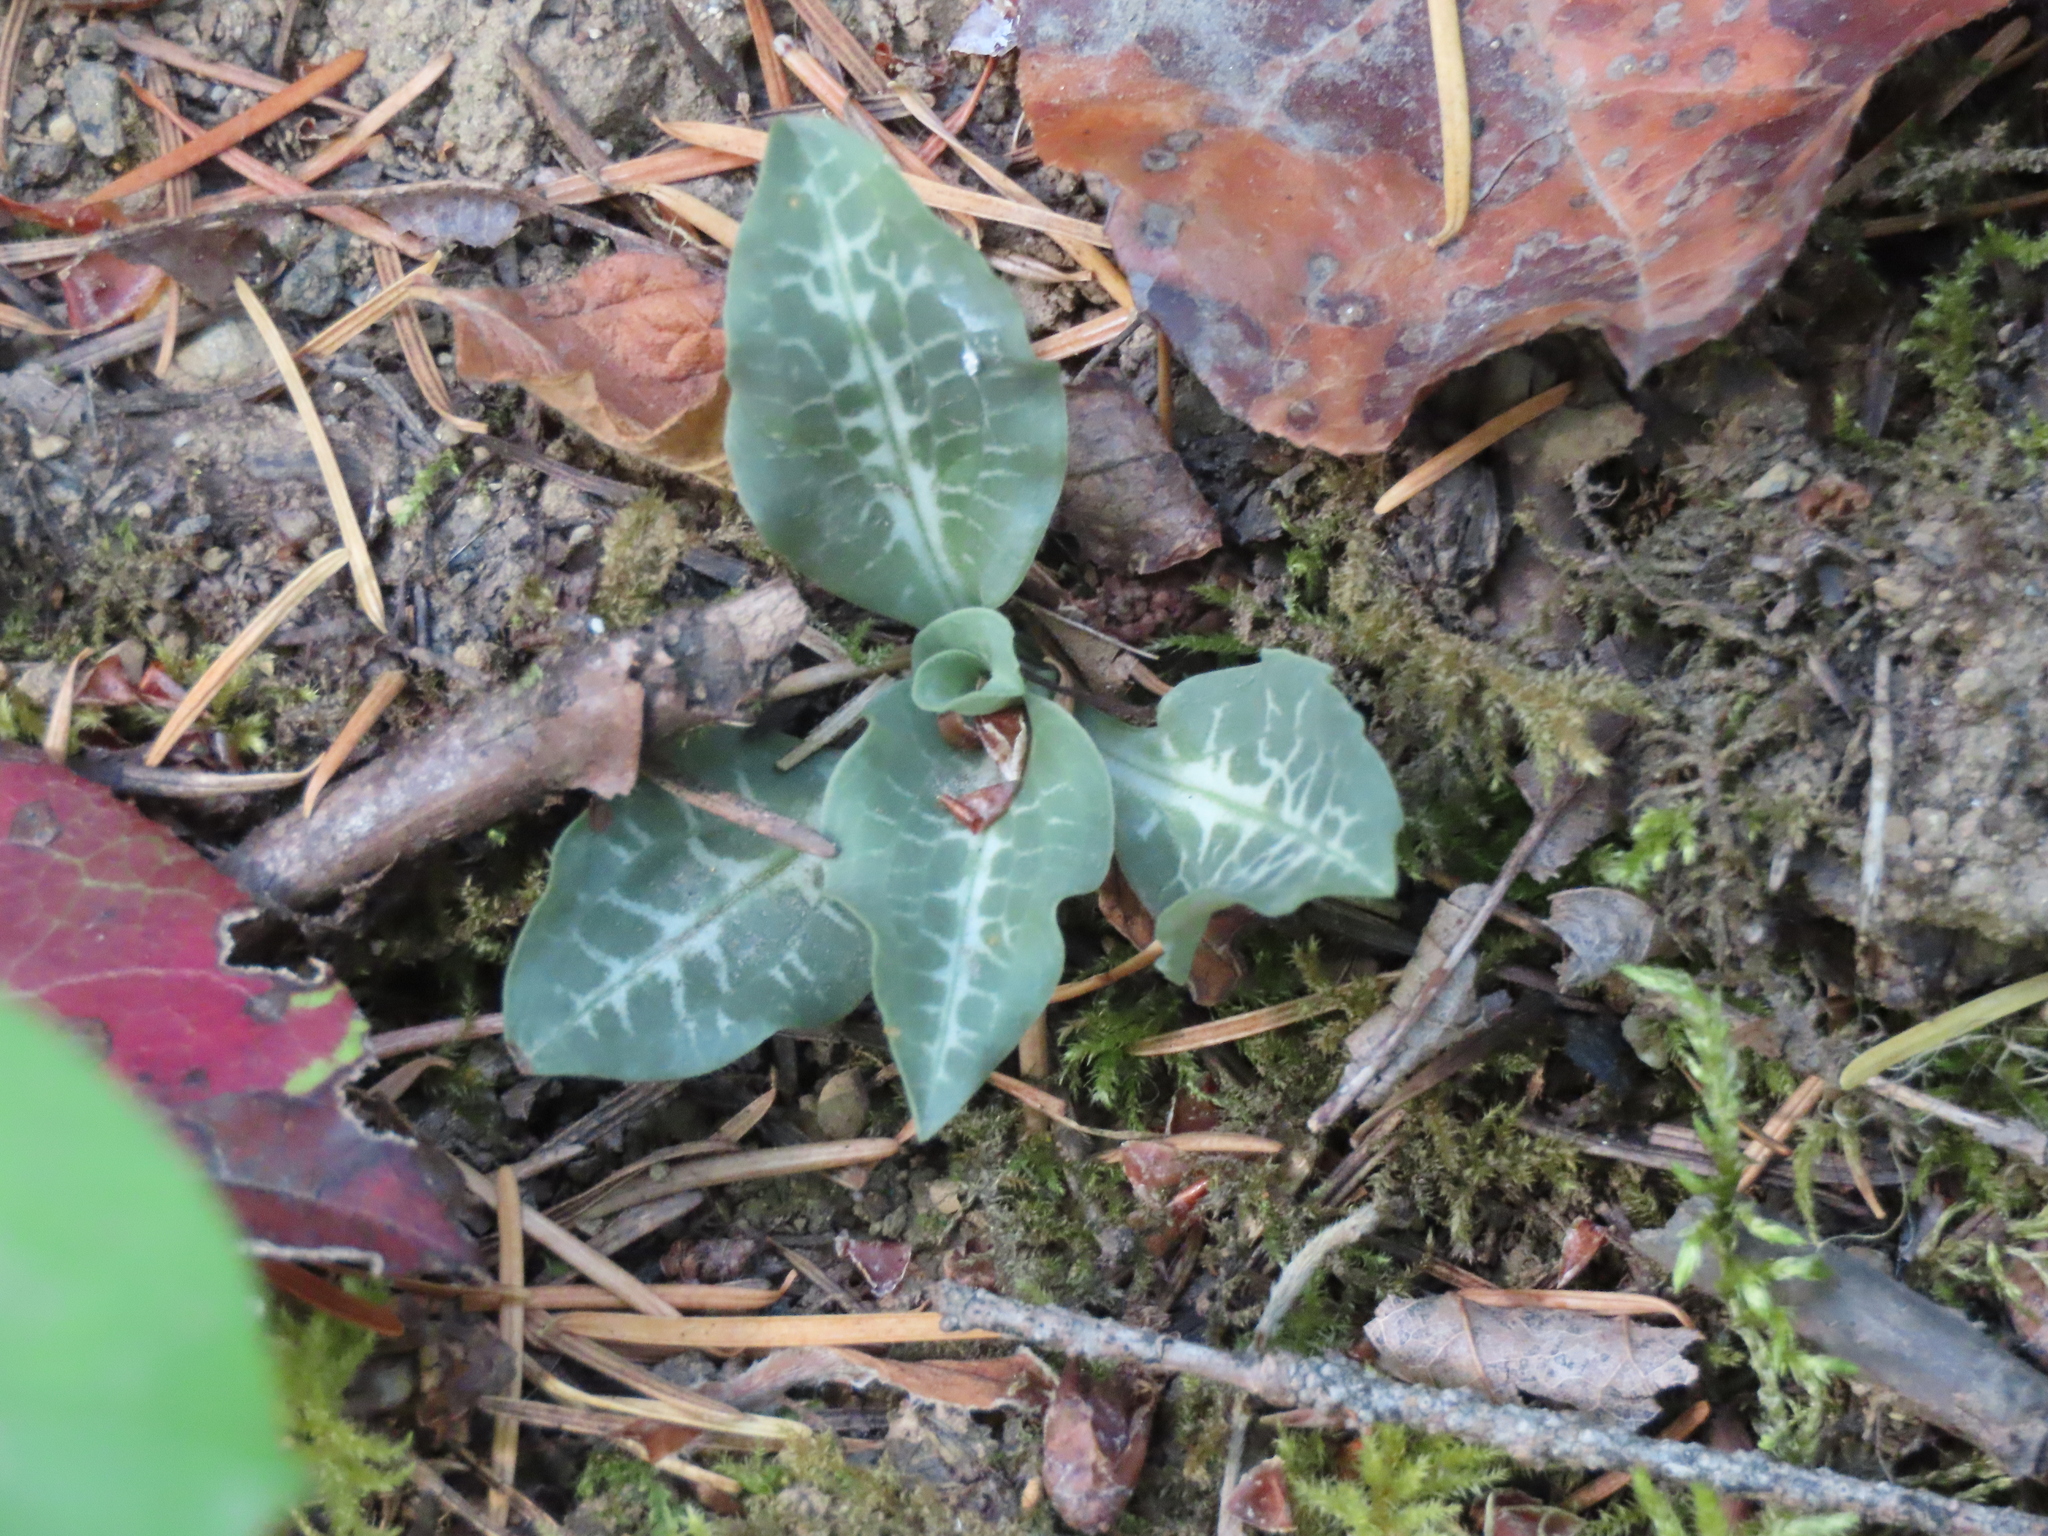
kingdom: Plantae
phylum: Tracheophyta
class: Liliopsida
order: Asparagales
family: Orchidaceae
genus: Goodyera
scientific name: Goodyera oblongifolia
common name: Giant rattlesnake-plantain
